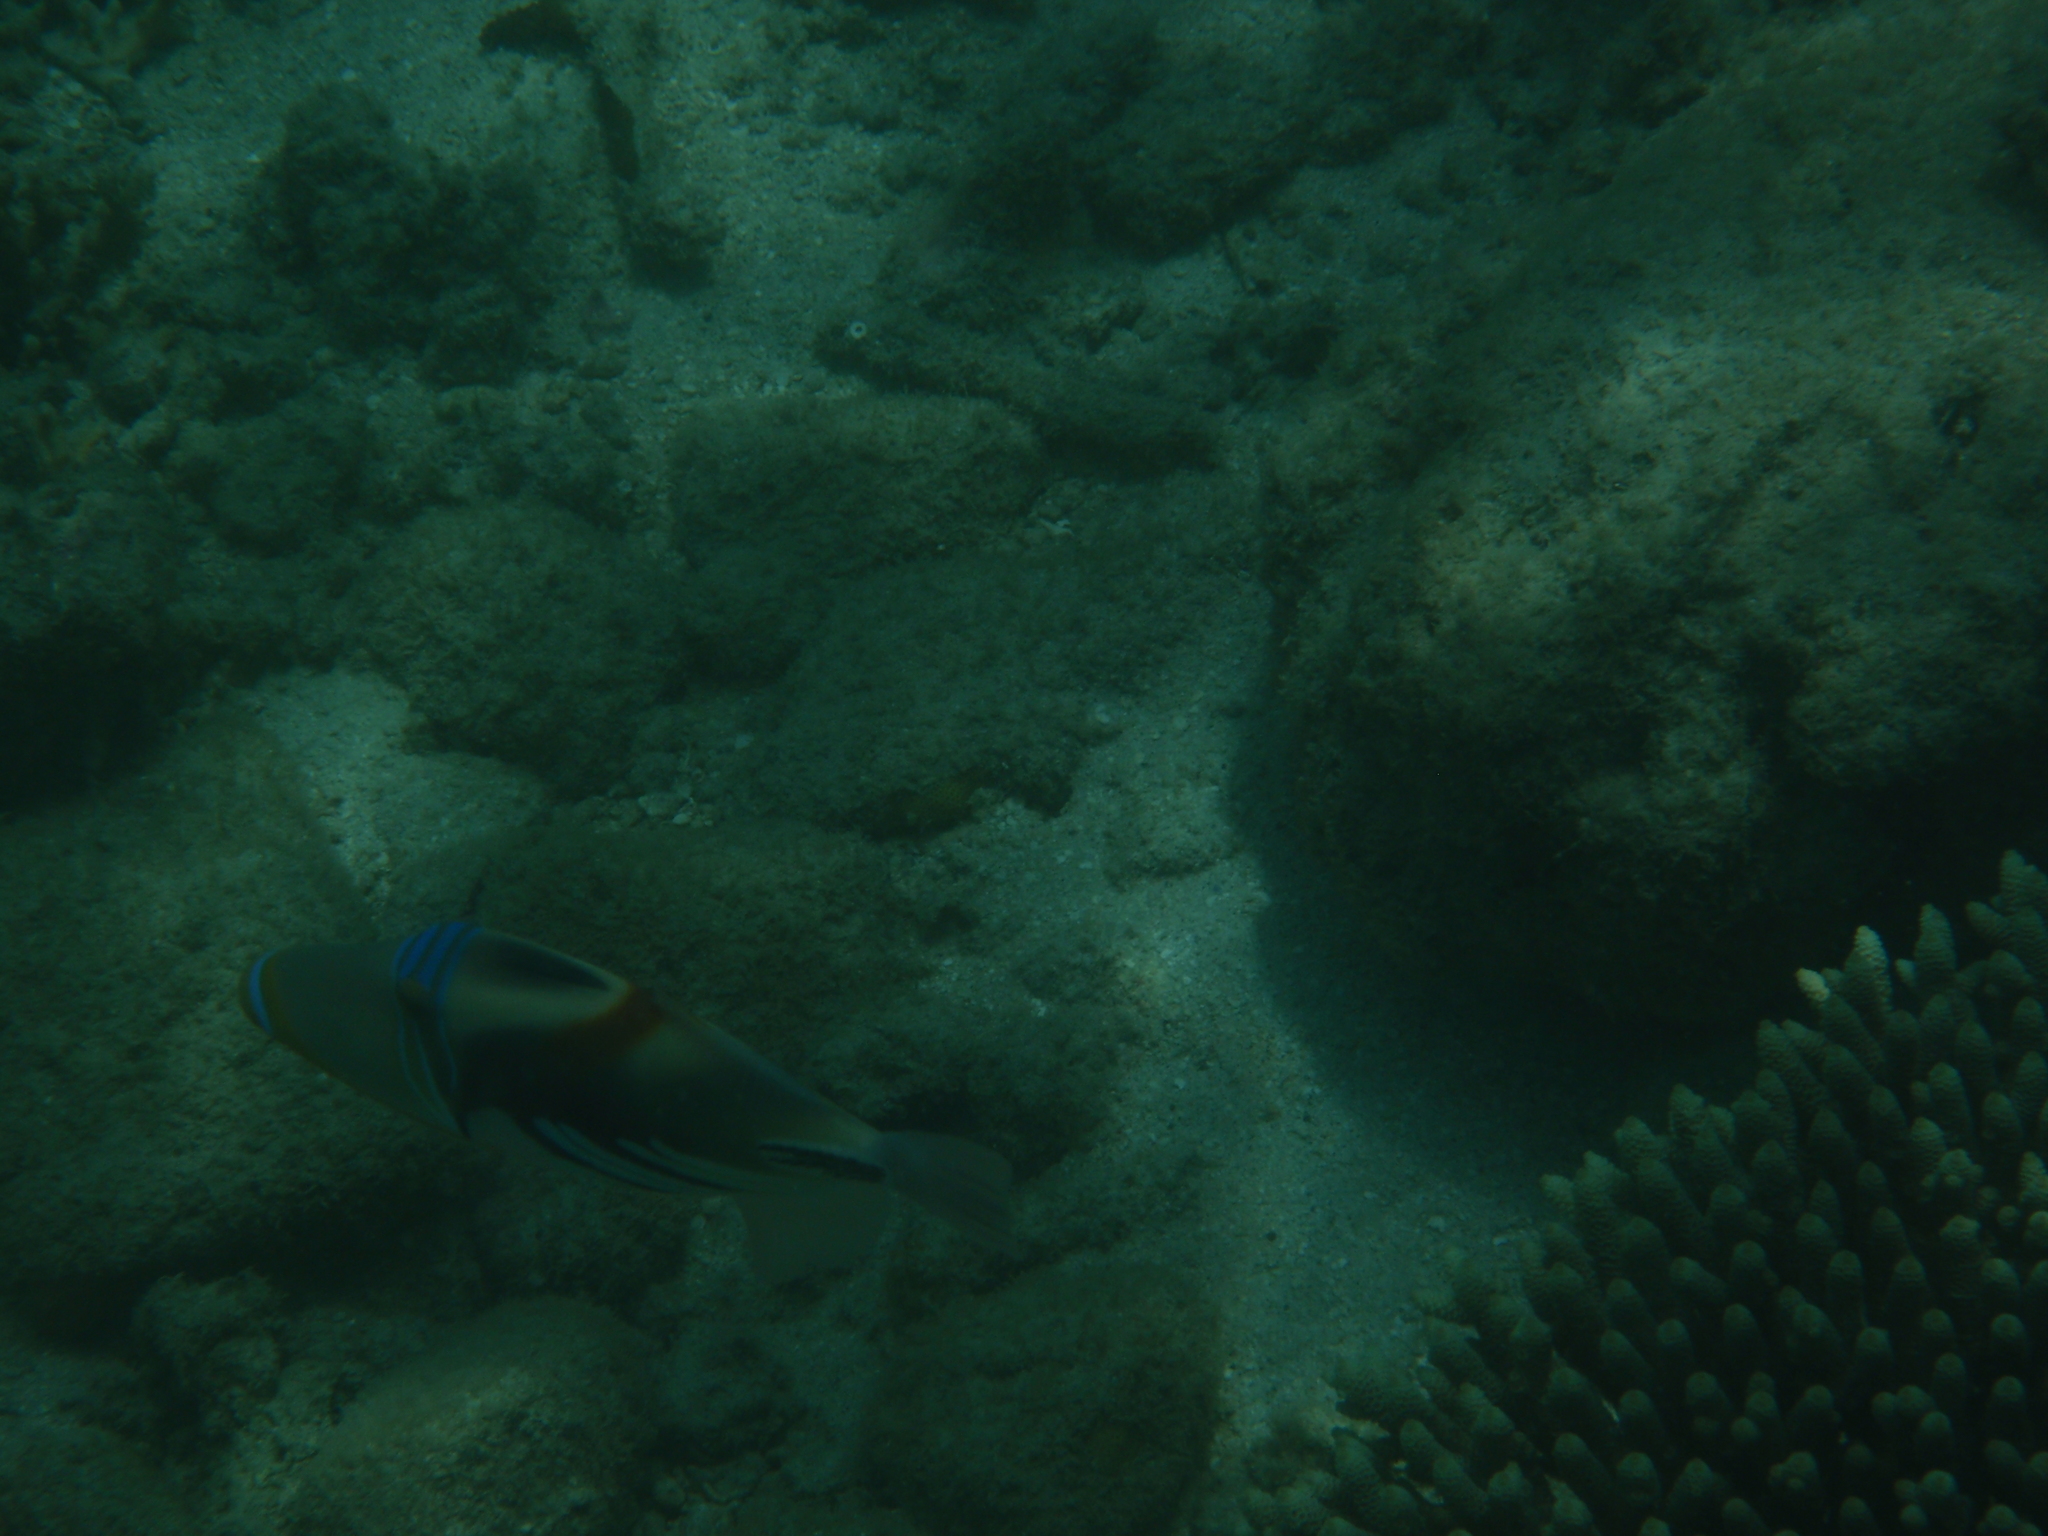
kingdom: Animalia
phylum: Chordata
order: Tetraodontiformes
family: Balistidae
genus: Rhinecanthus
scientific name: Rhinecanthus aculeatus
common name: White-banded triggerfish
